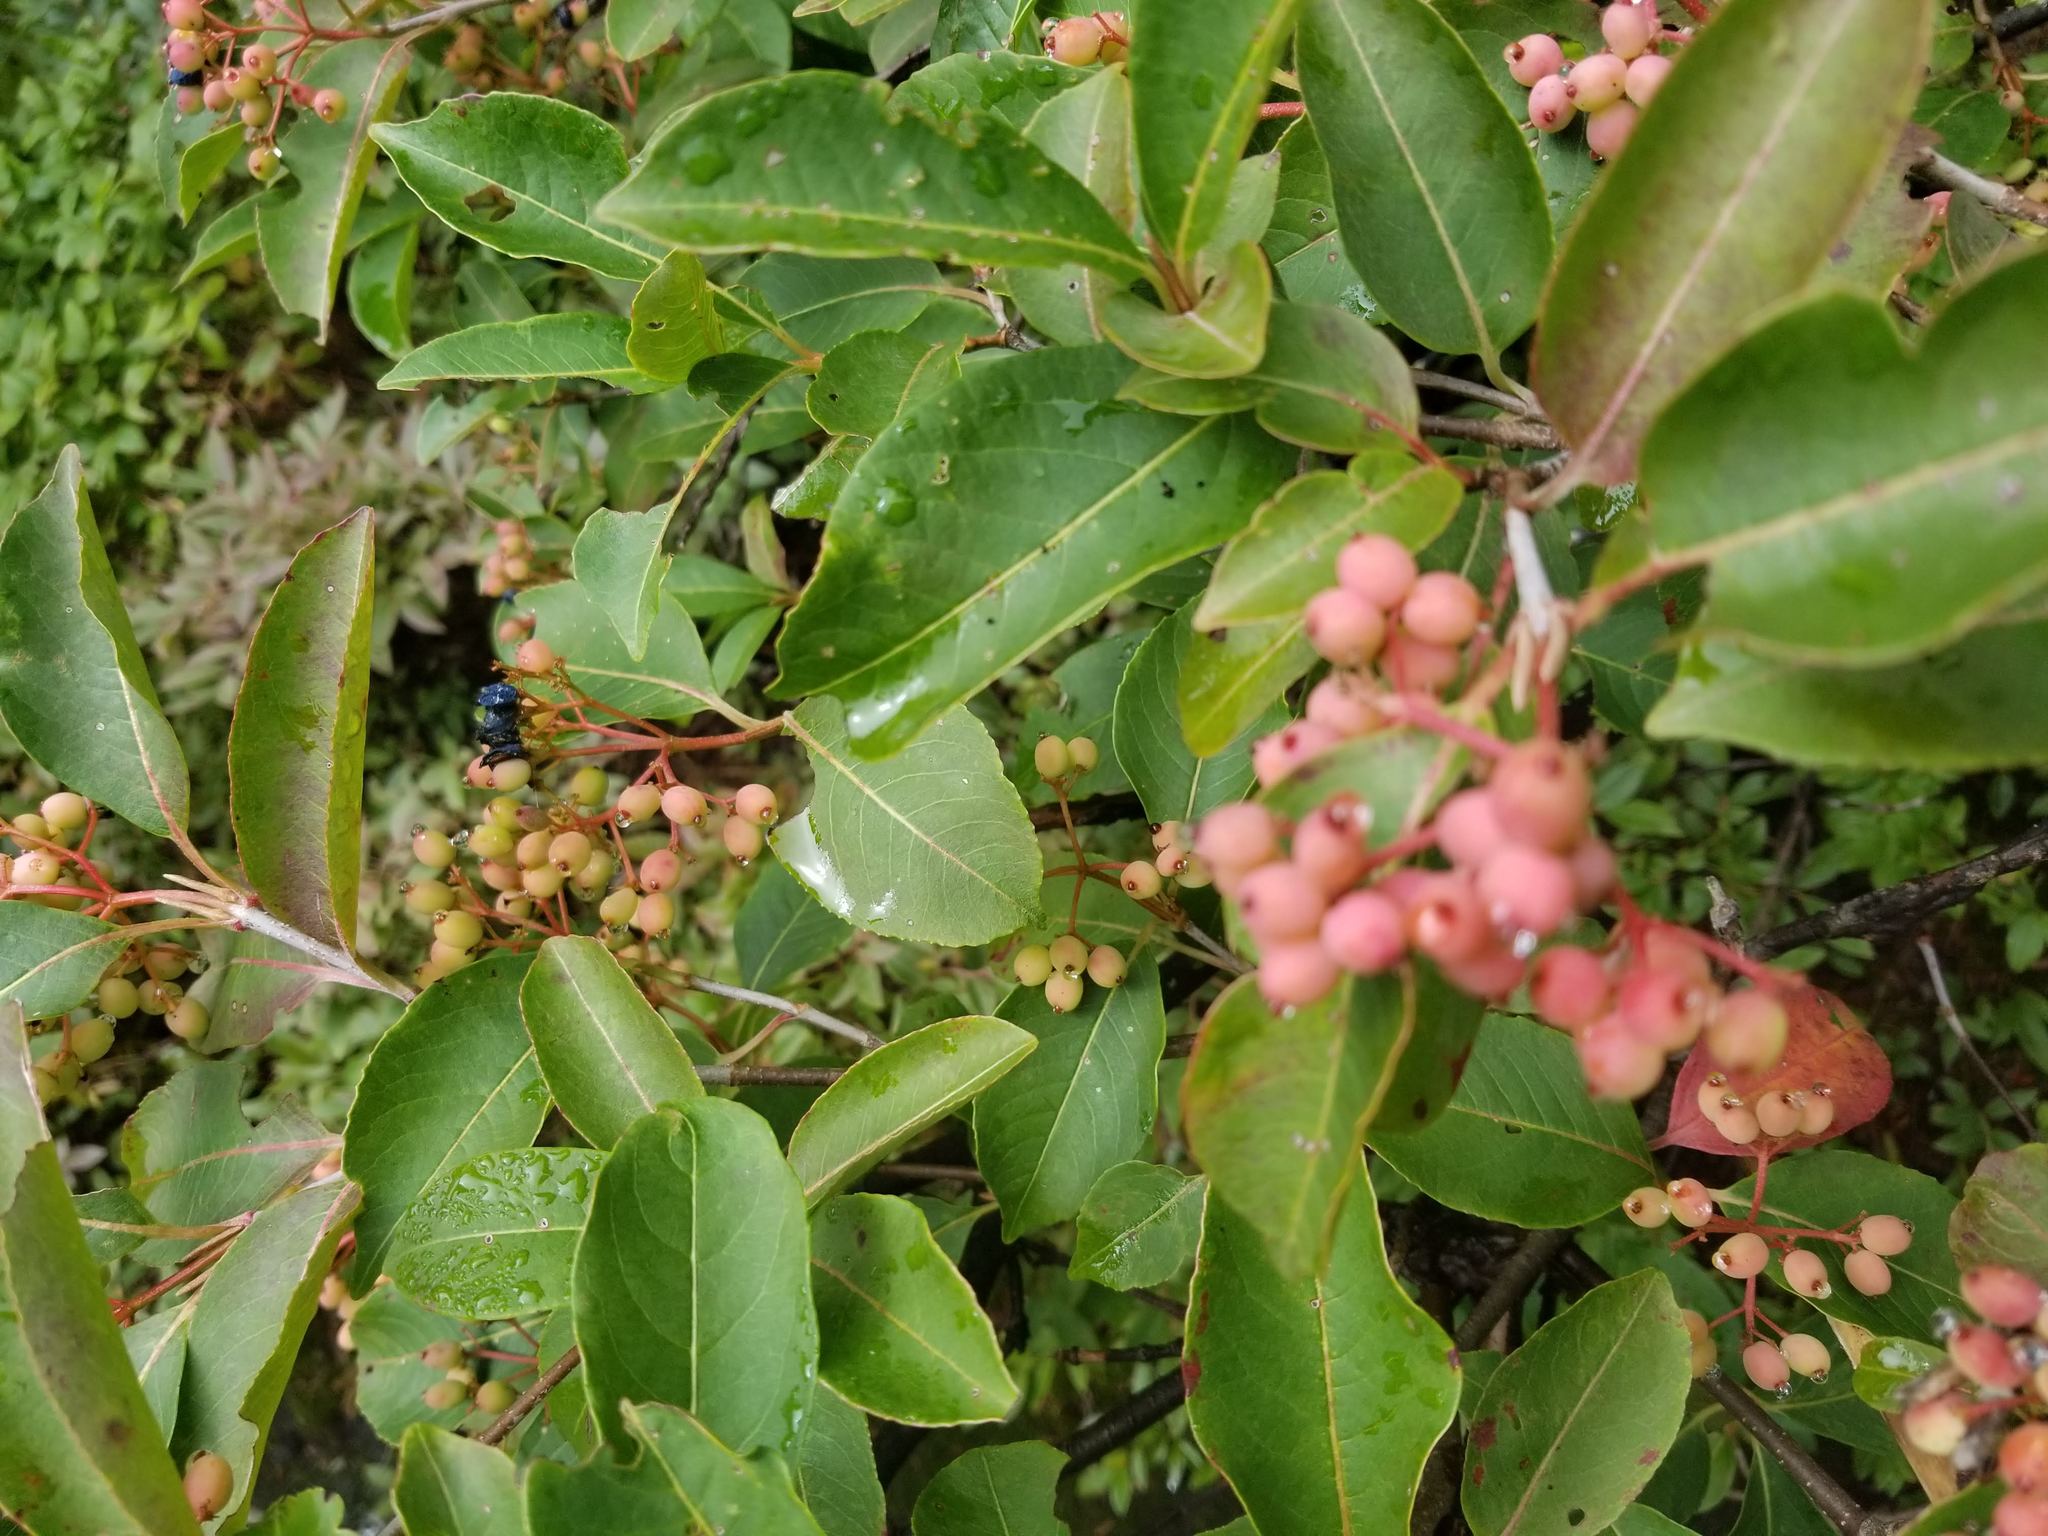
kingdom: Plantae
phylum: Tracheophyta
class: Magnoliopsida
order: Dipsacales
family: Viburnaceae
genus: Viburnum
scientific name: Viburnum cassinoides
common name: Swamp haw
